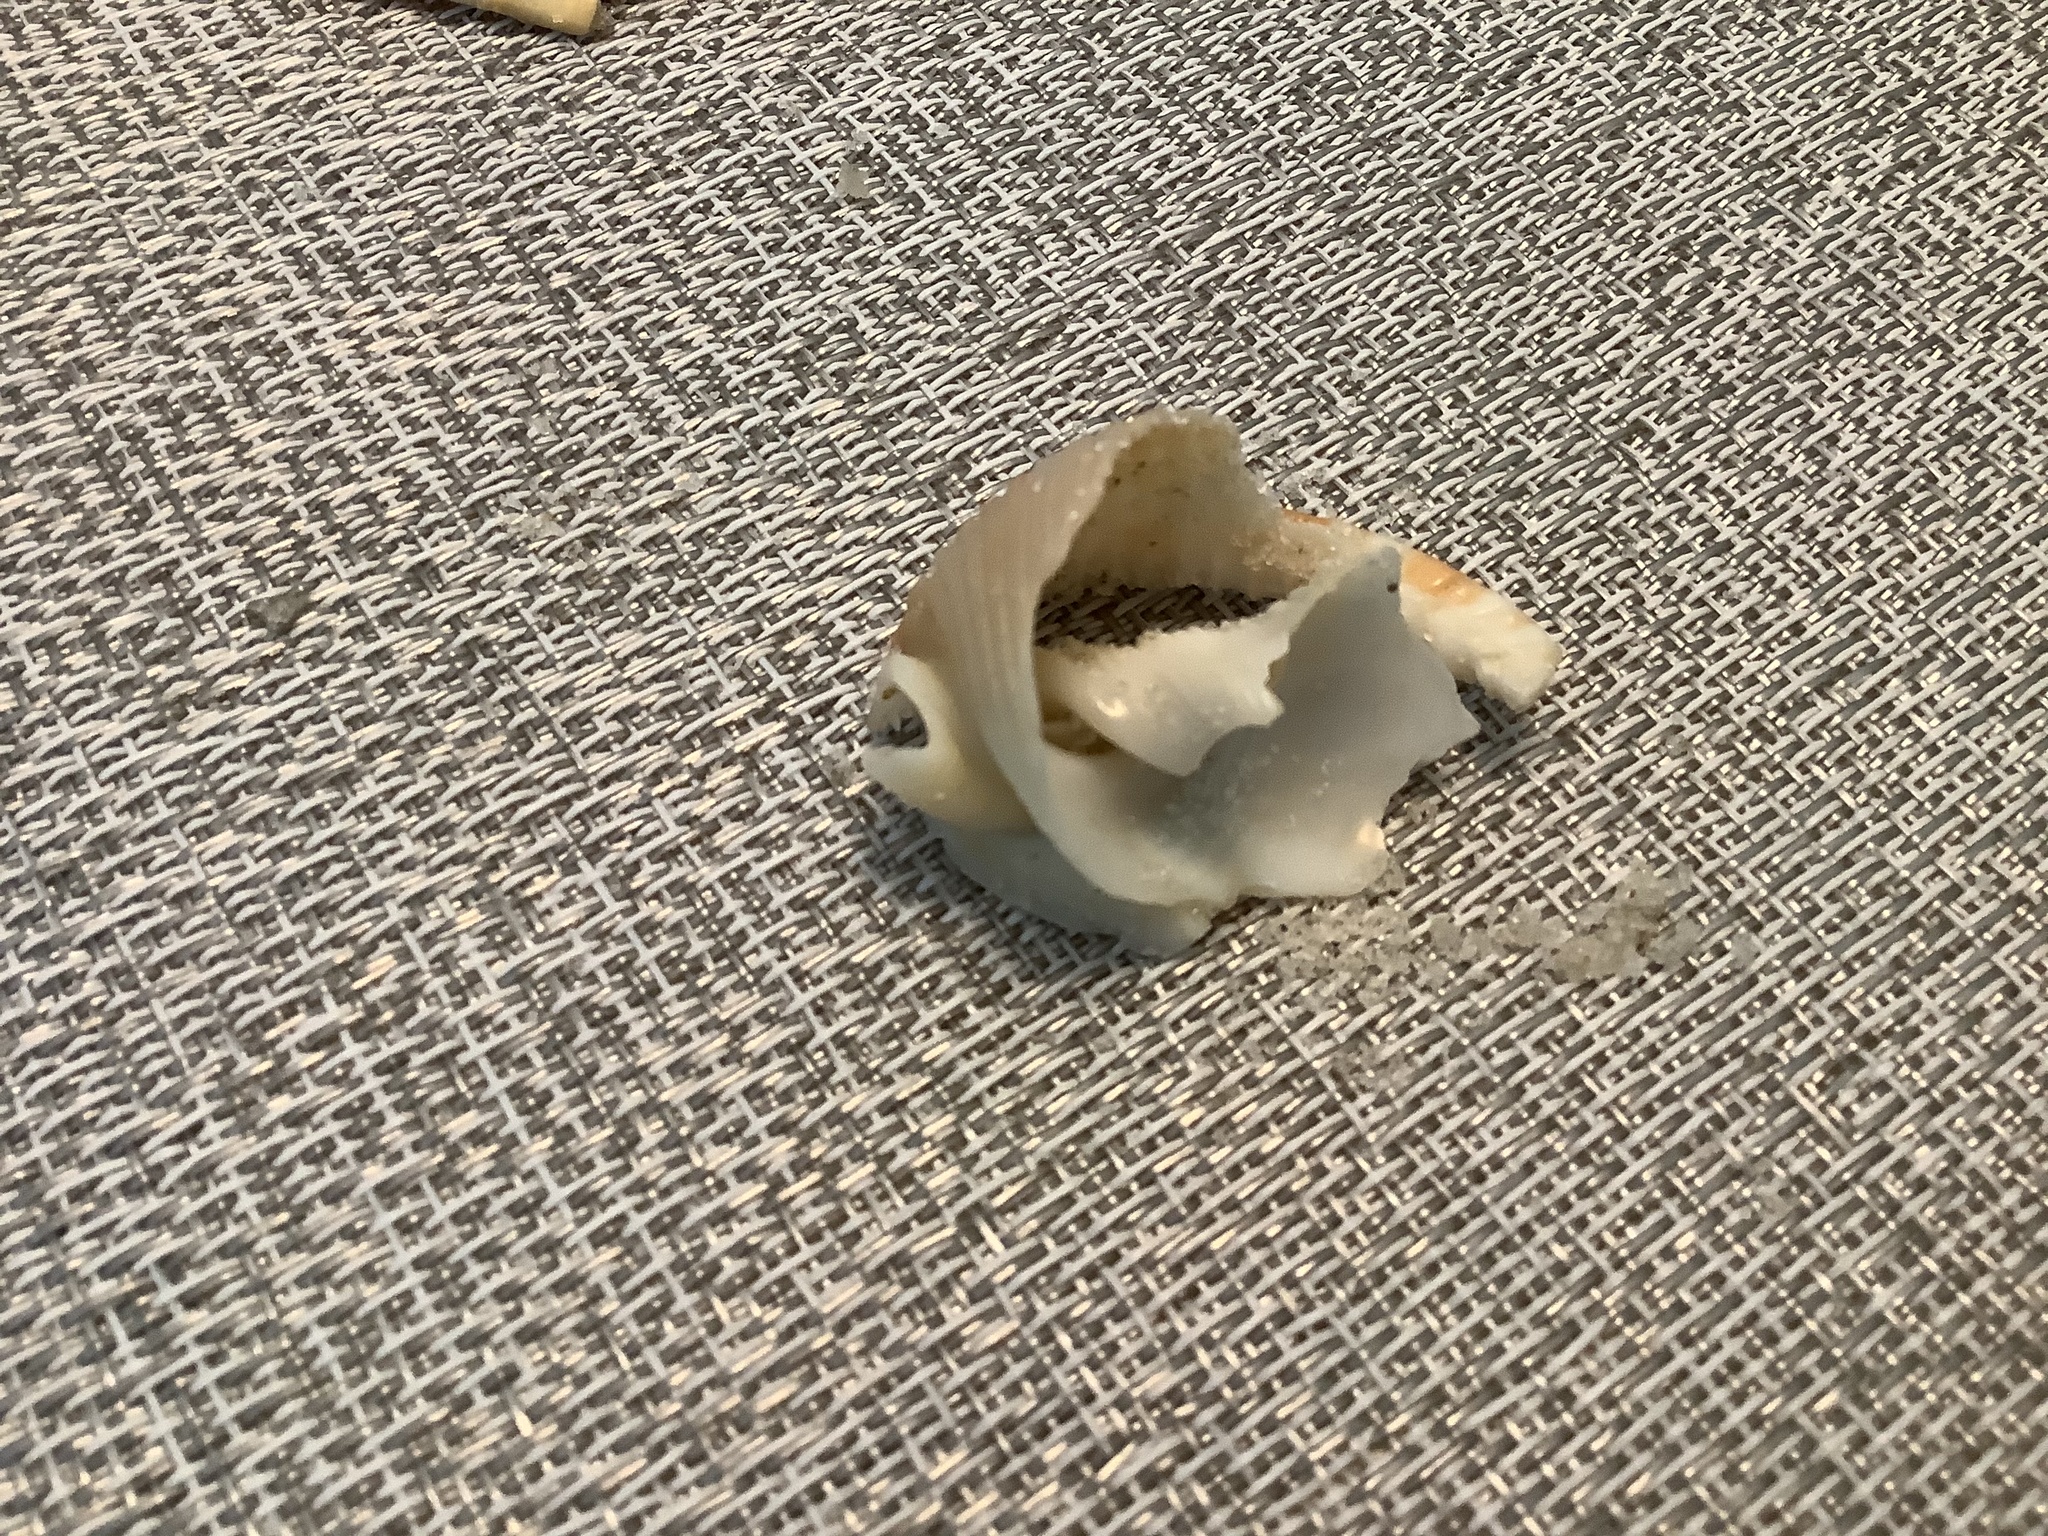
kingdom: Animalia
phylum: Mollusca
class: Gastropoda
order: Littorinimorpha
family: Cassidae
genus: Semicassis
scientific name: Semicassis granulata
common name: Scotch bonnet
